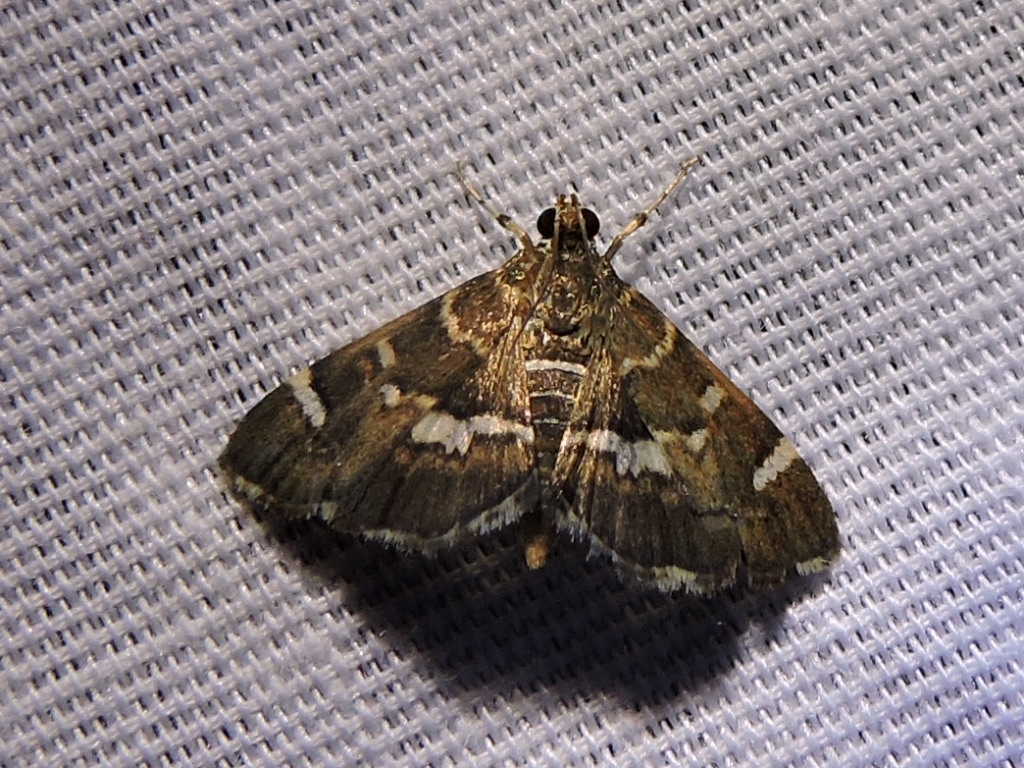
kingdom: Animalia
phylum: Arthropoda
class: Insecta
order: Lepidoptera
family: Crambidae
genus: Hymenia
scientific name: Hymenia perspectalis
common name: Spotted beet webworm
